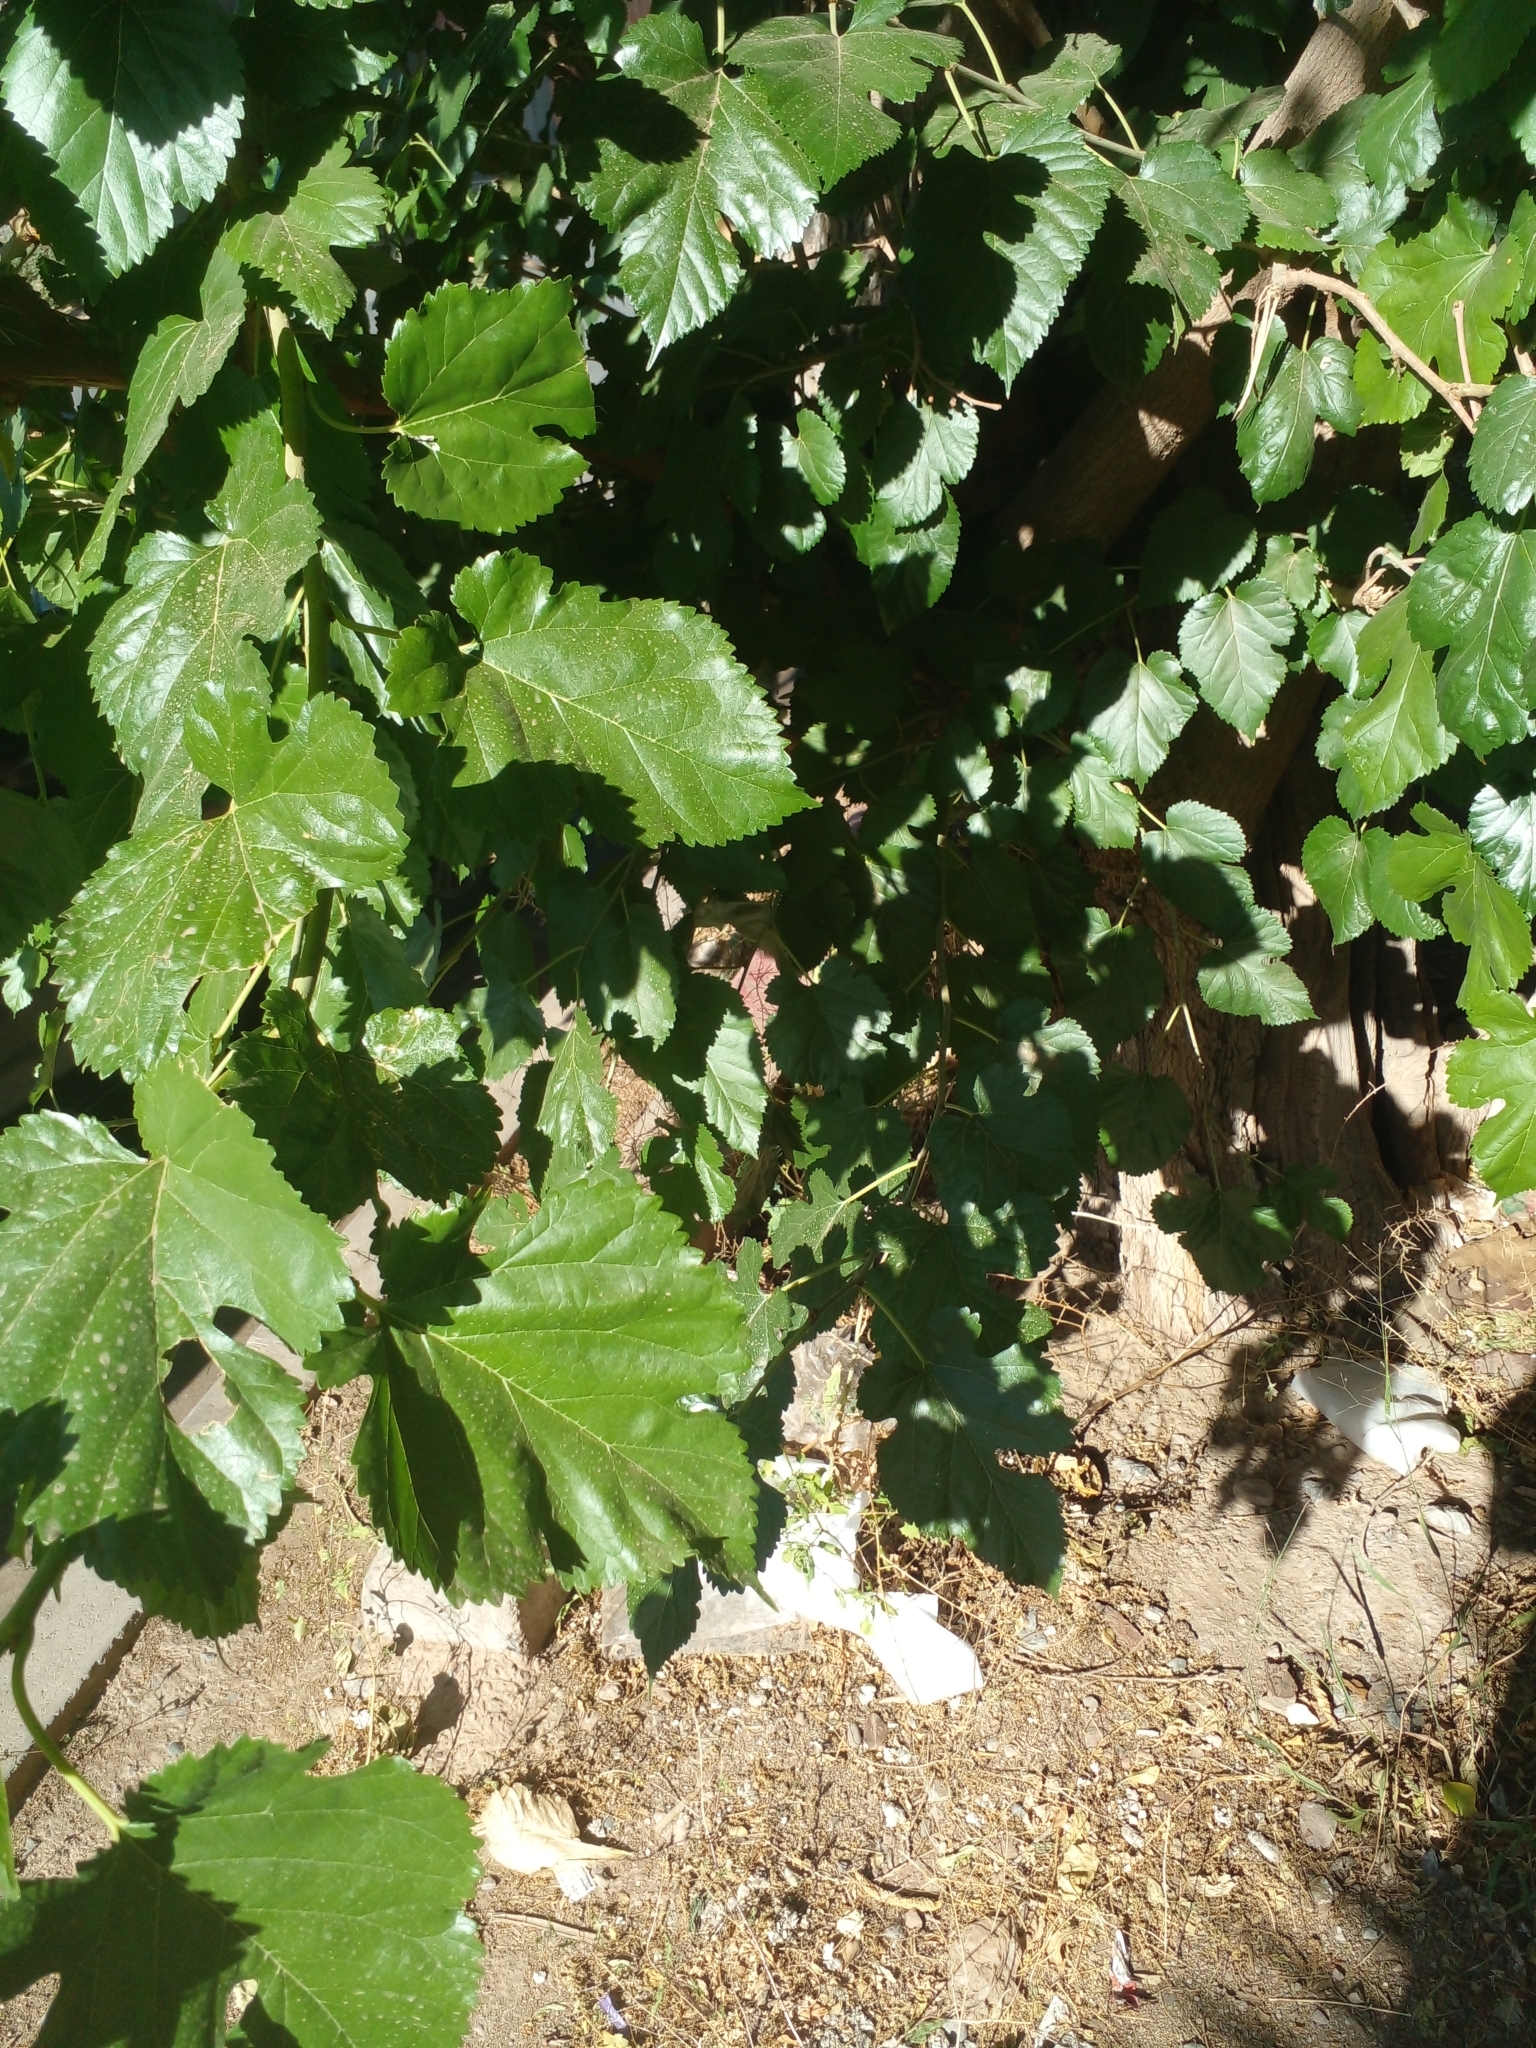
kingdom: Plantae
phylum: Tracheophyta
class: Magnoliopsida
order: Rosales
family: Moraceae
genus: Morus
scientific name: Morus alba
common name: White mulberry
